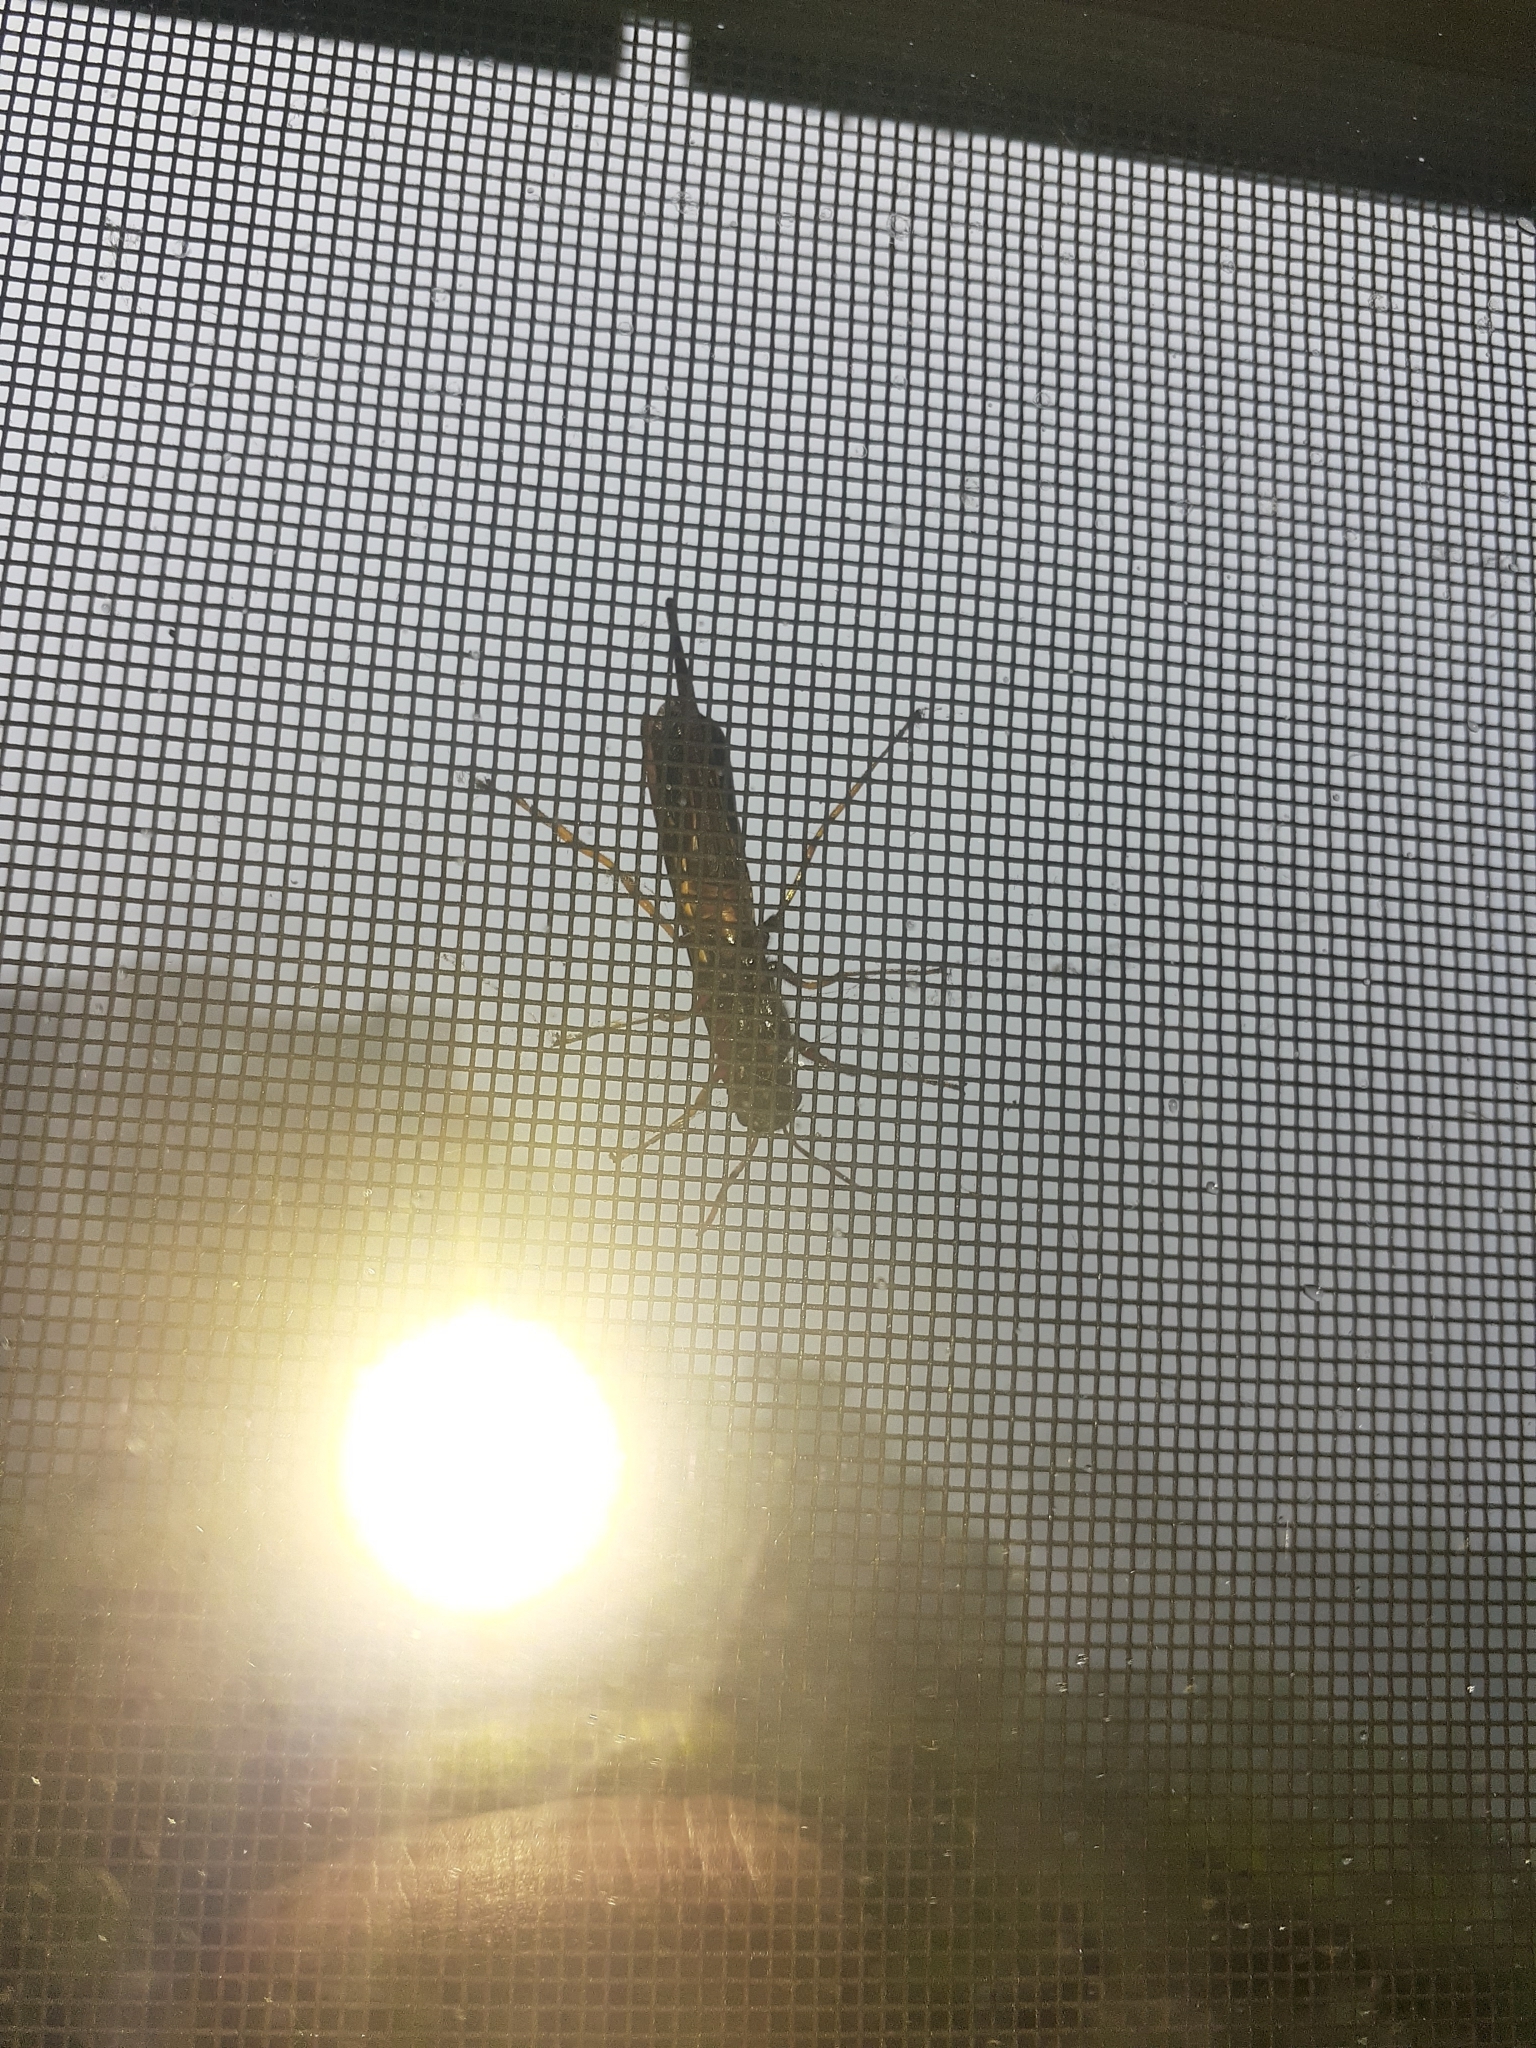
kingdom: Animalia
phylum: Arthropoda
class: Insecta
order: Hymenoptera
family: Siricidae
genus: Tremex
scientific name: Tremex columba
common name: Wasp
